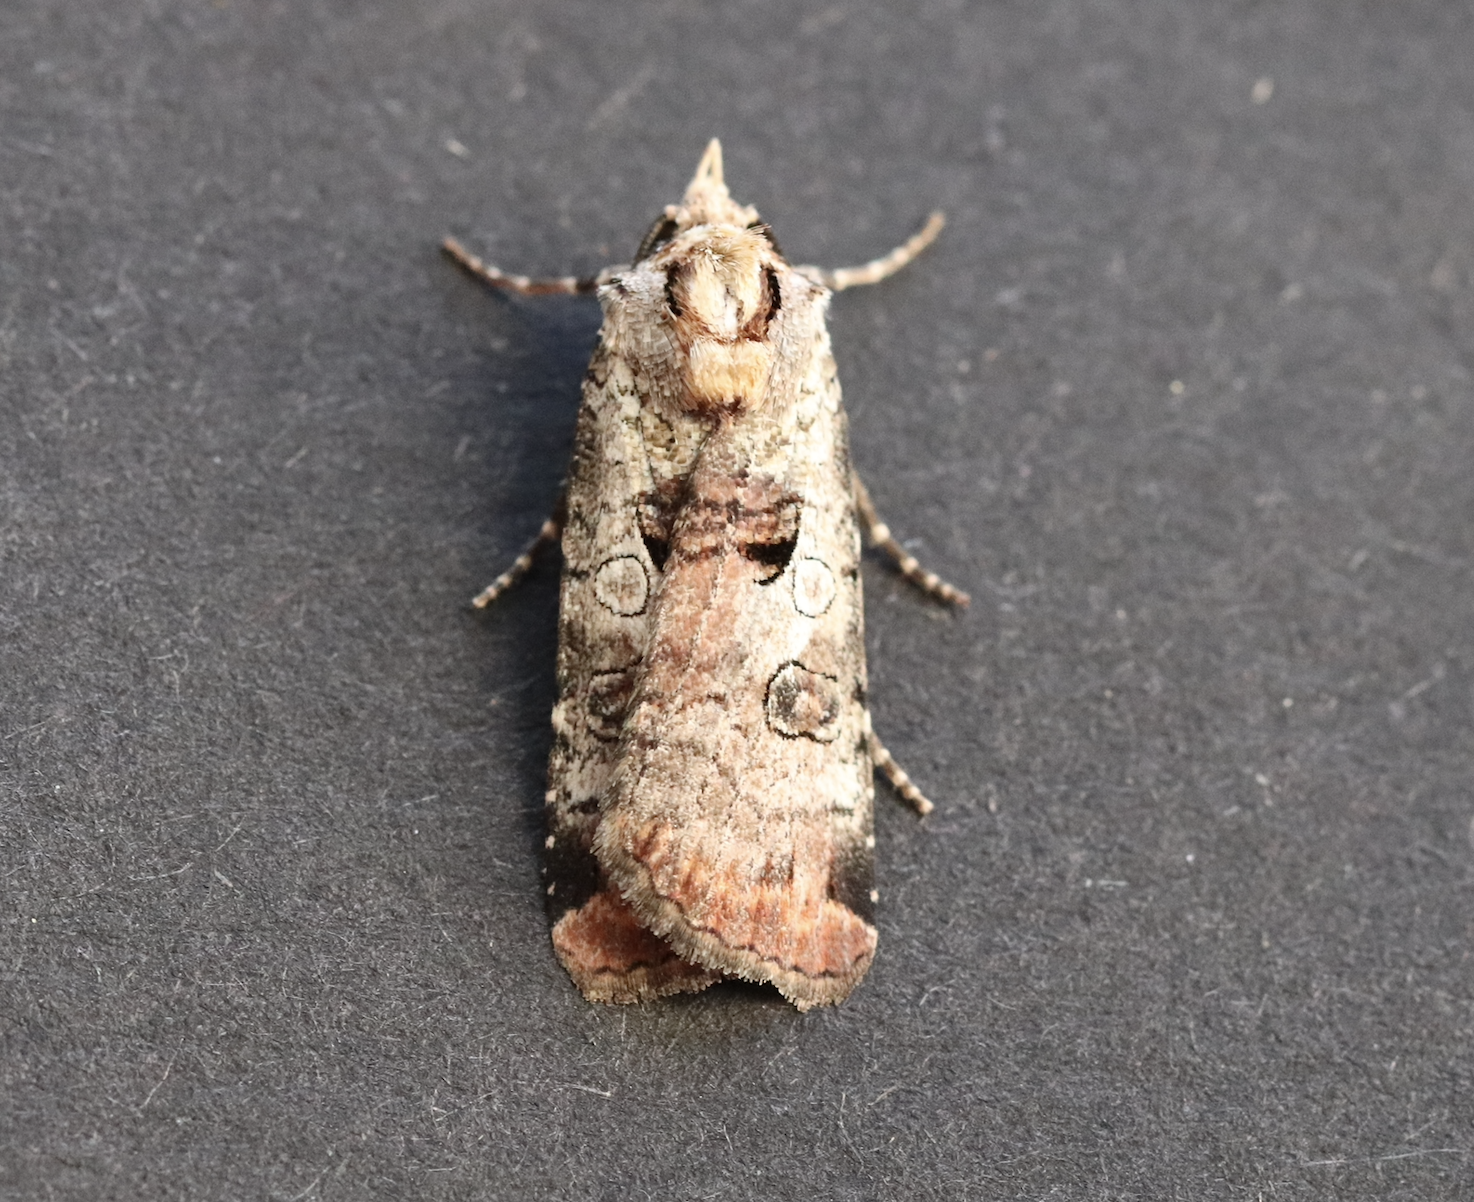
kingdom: Animalia
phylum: Arthropoda
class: Insecta
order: Lepidoptera
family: Noctuidae
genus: Epilecta
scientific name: Epilecta linogrisea
